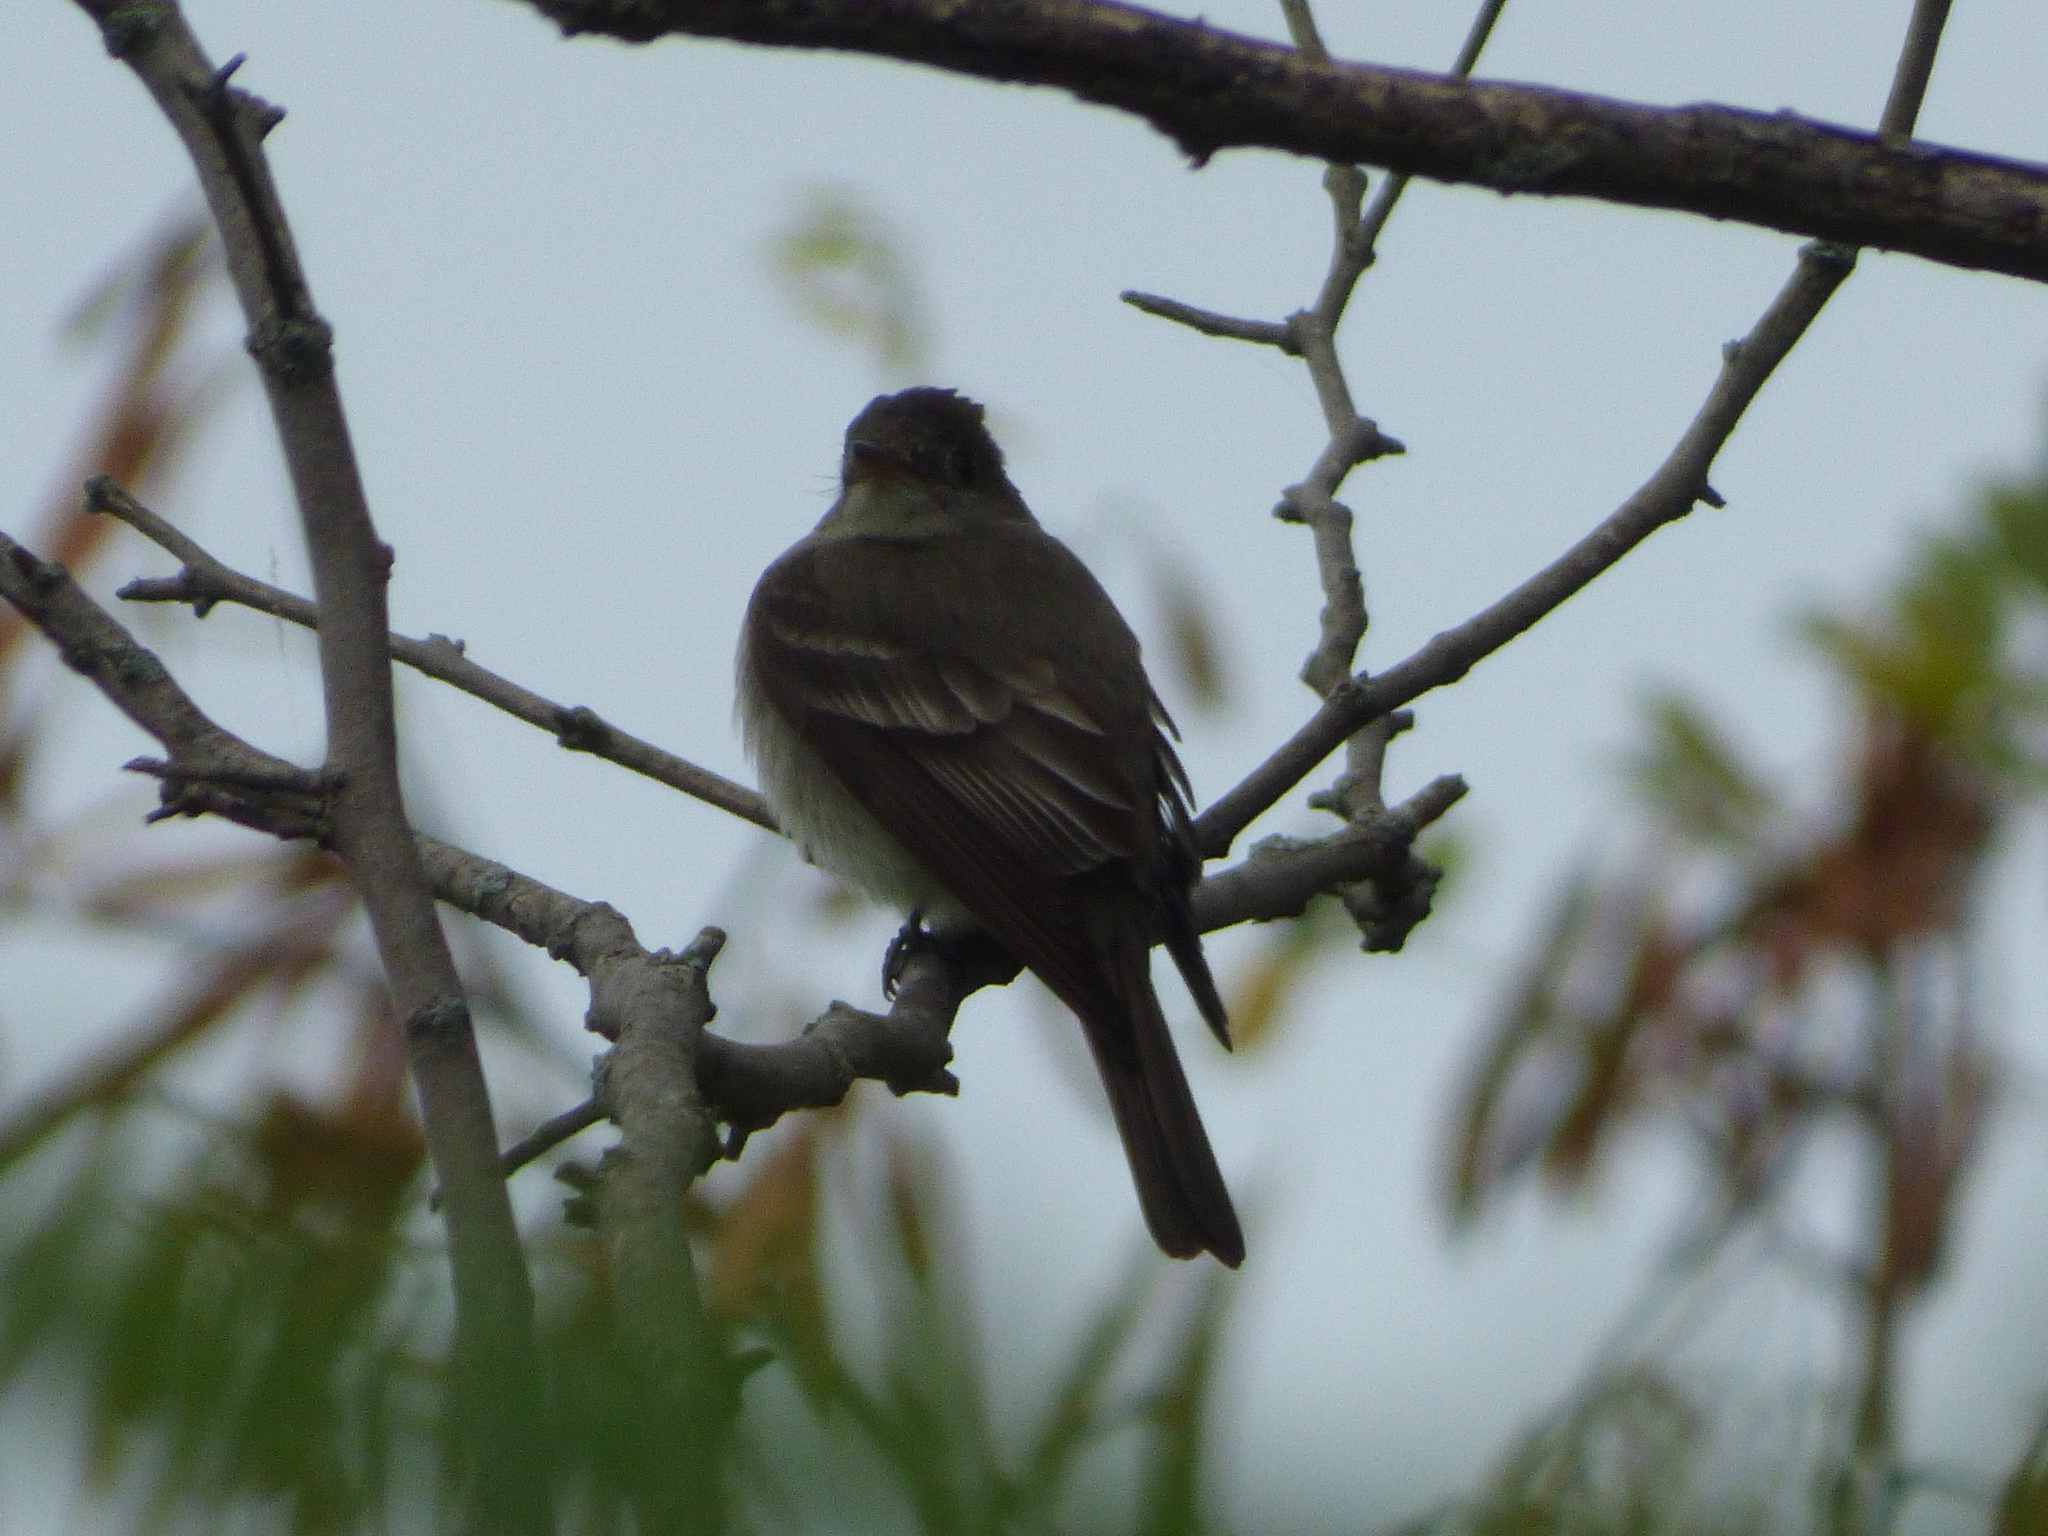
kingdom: Animalia
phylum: Chordata
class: Aves
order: Passeriformes
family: Tyrannidae
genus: Contopus
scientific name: Contopus virens
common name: Eastern wood-pewee
